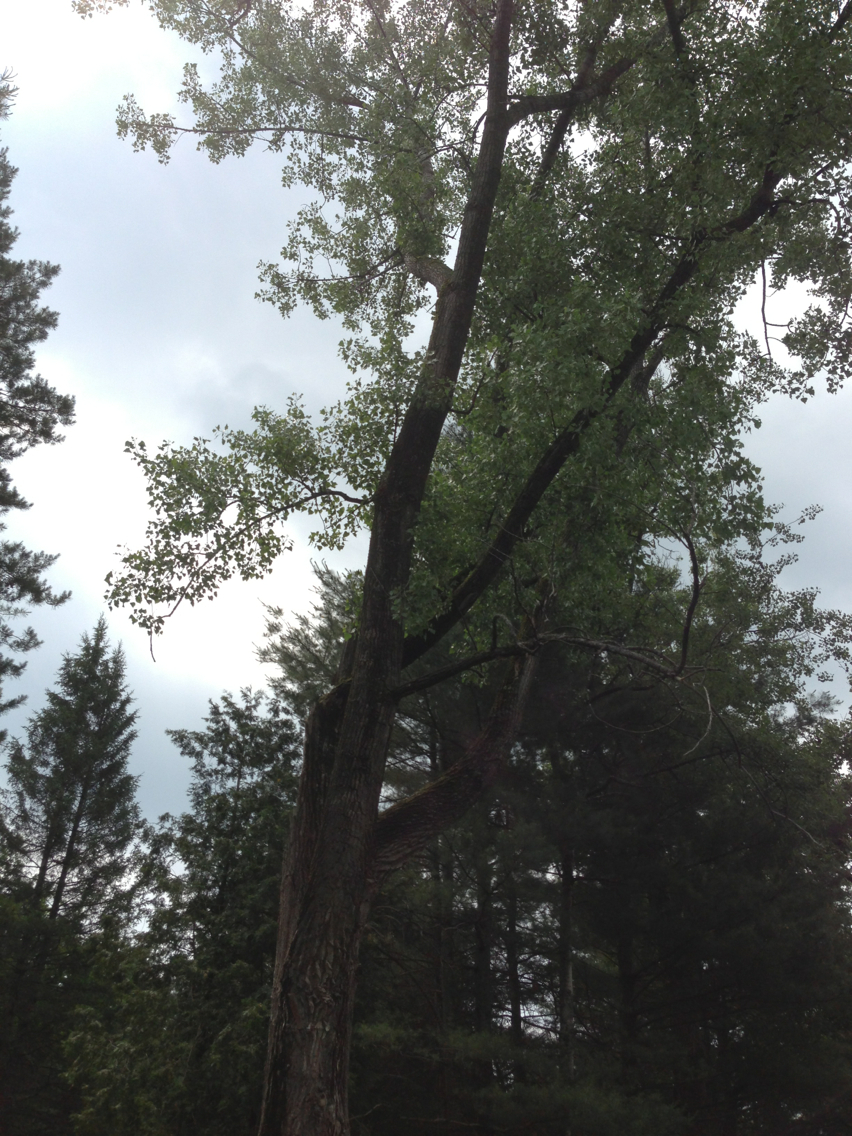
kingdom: Plantae
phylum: Tracheophyta
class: Magnoliopsida
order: Malpighiales
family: Salicaceae
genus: Populus
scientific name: Populus deltoides
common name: Eastern cottonwood
